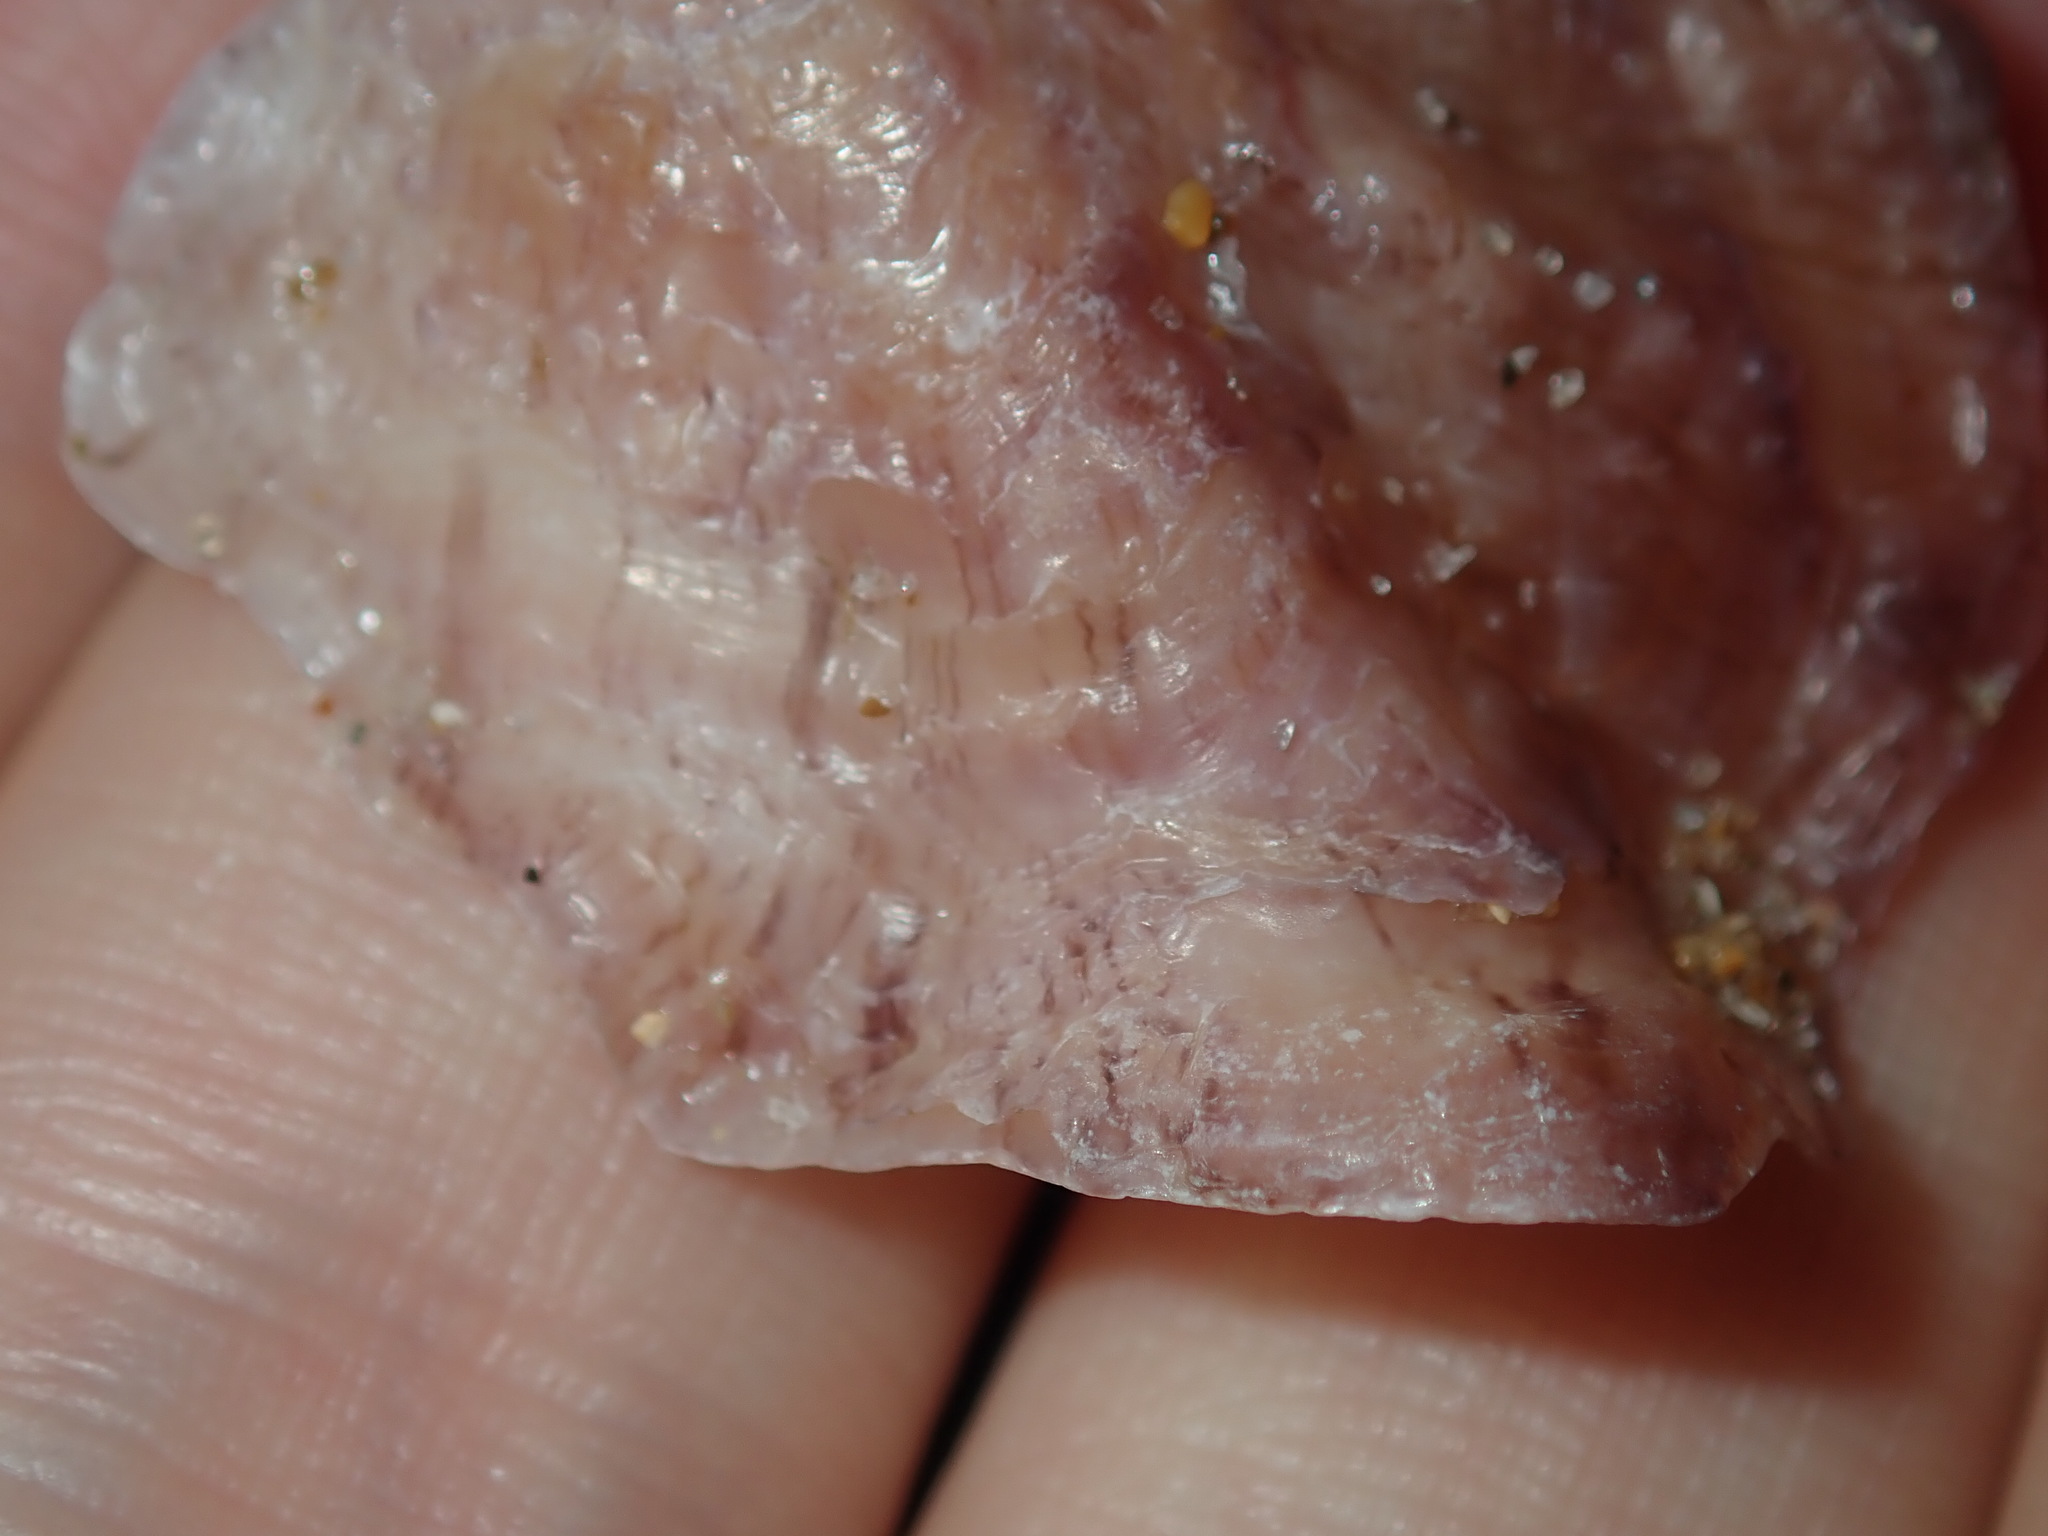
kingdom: Animalia
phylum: Mollusca
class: Bivalvia
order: Ostreida
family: Ostreidae
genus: Dendostrea
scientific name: Dendostrea folium
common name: Leaf oyster
